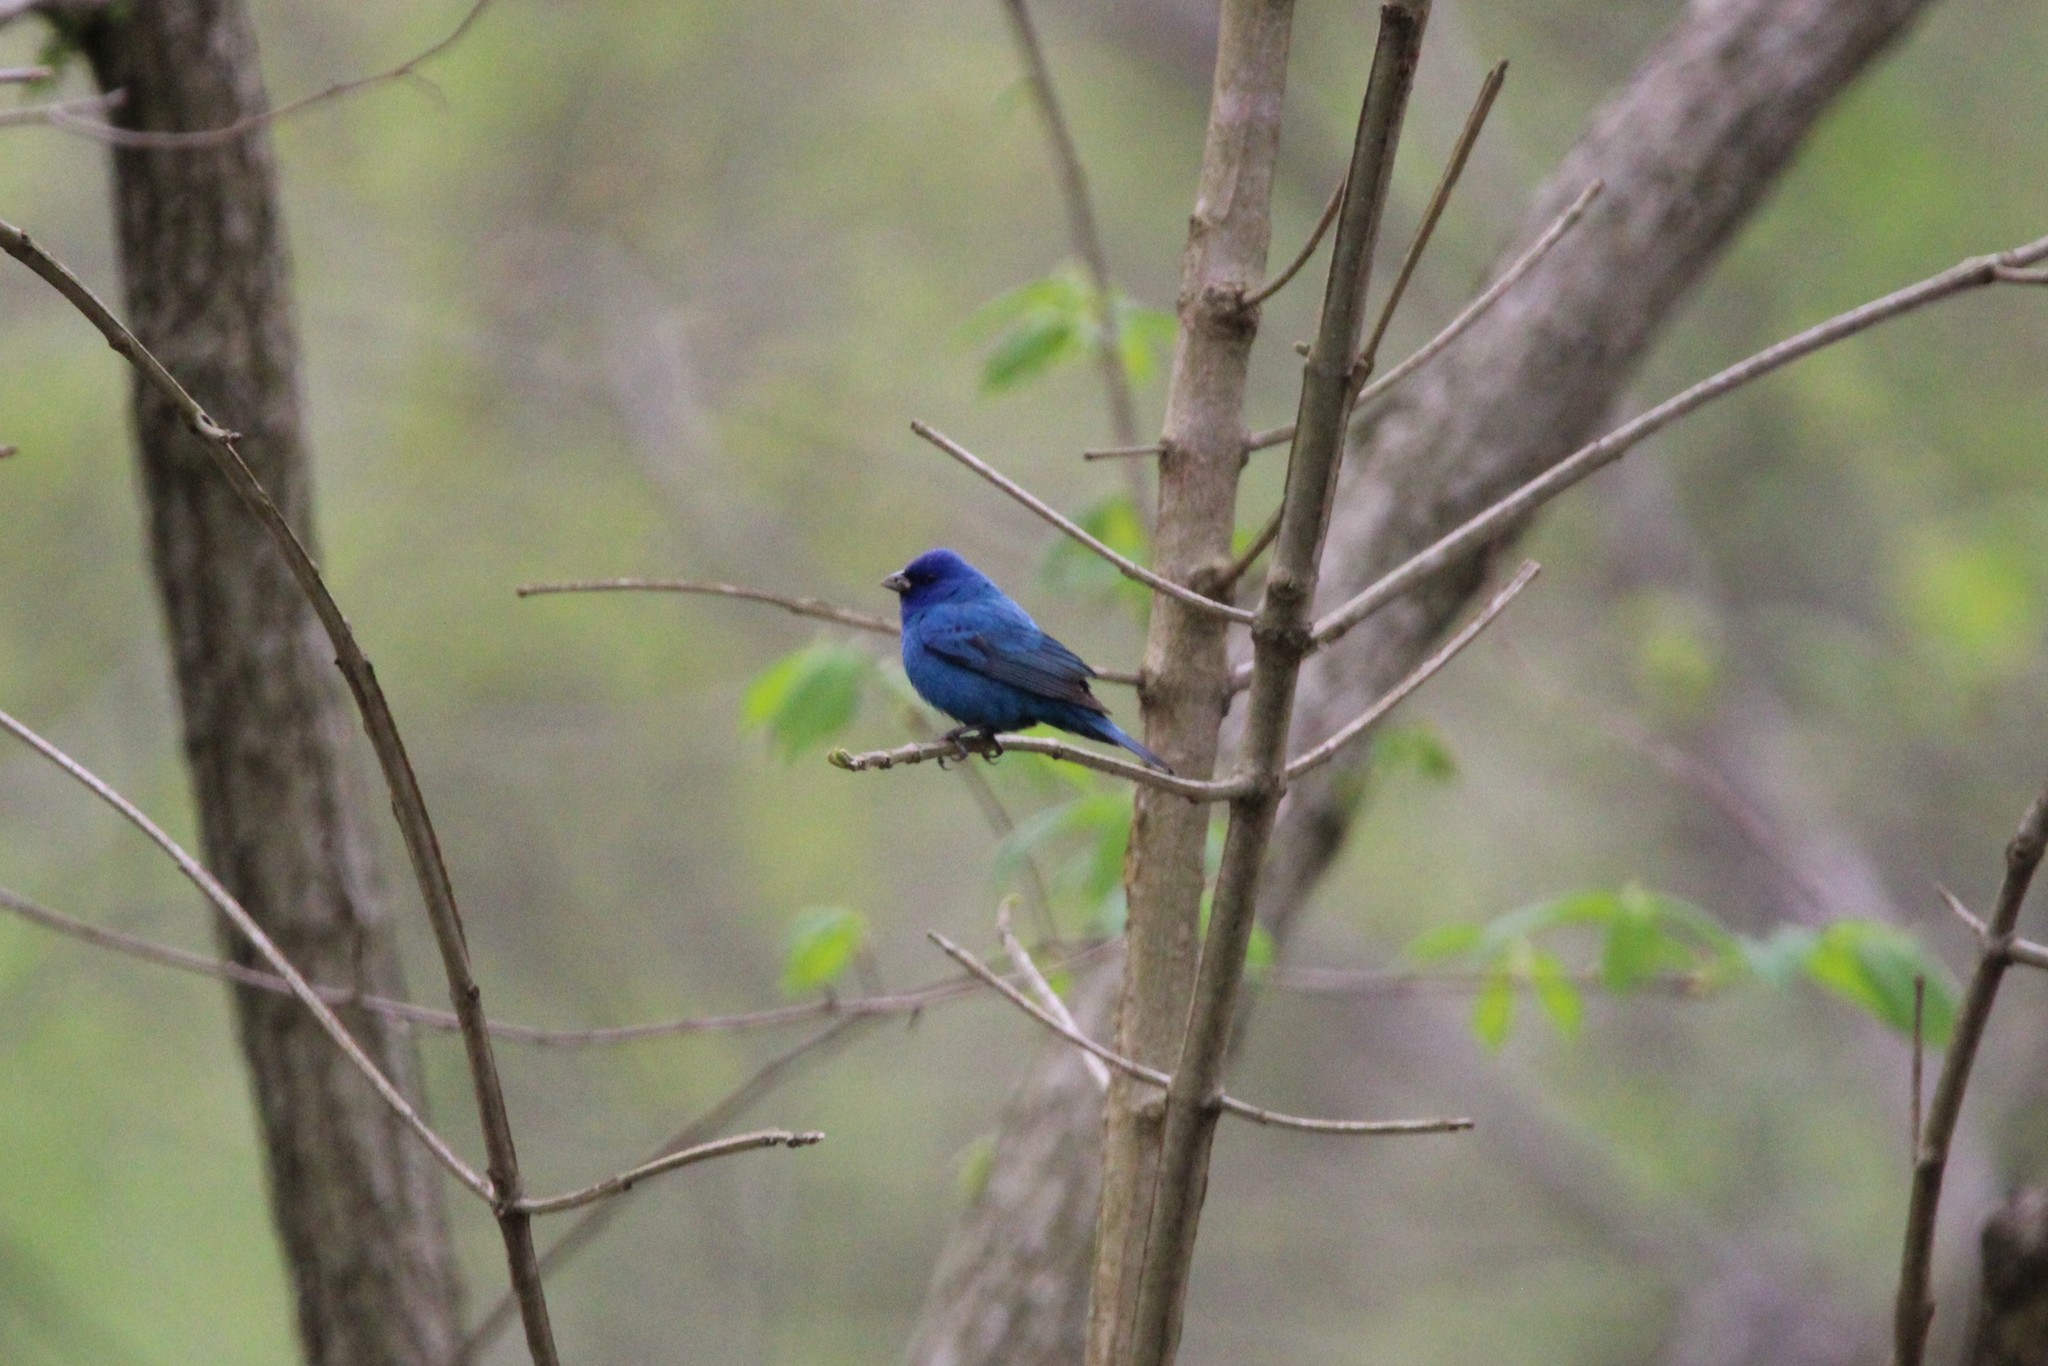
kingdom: Animalia
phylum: Chordata
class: Aves
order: Passeriformes
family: Cardinalidae
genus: Passerina
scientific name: Passerina cyanea
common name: Indigo bunting
